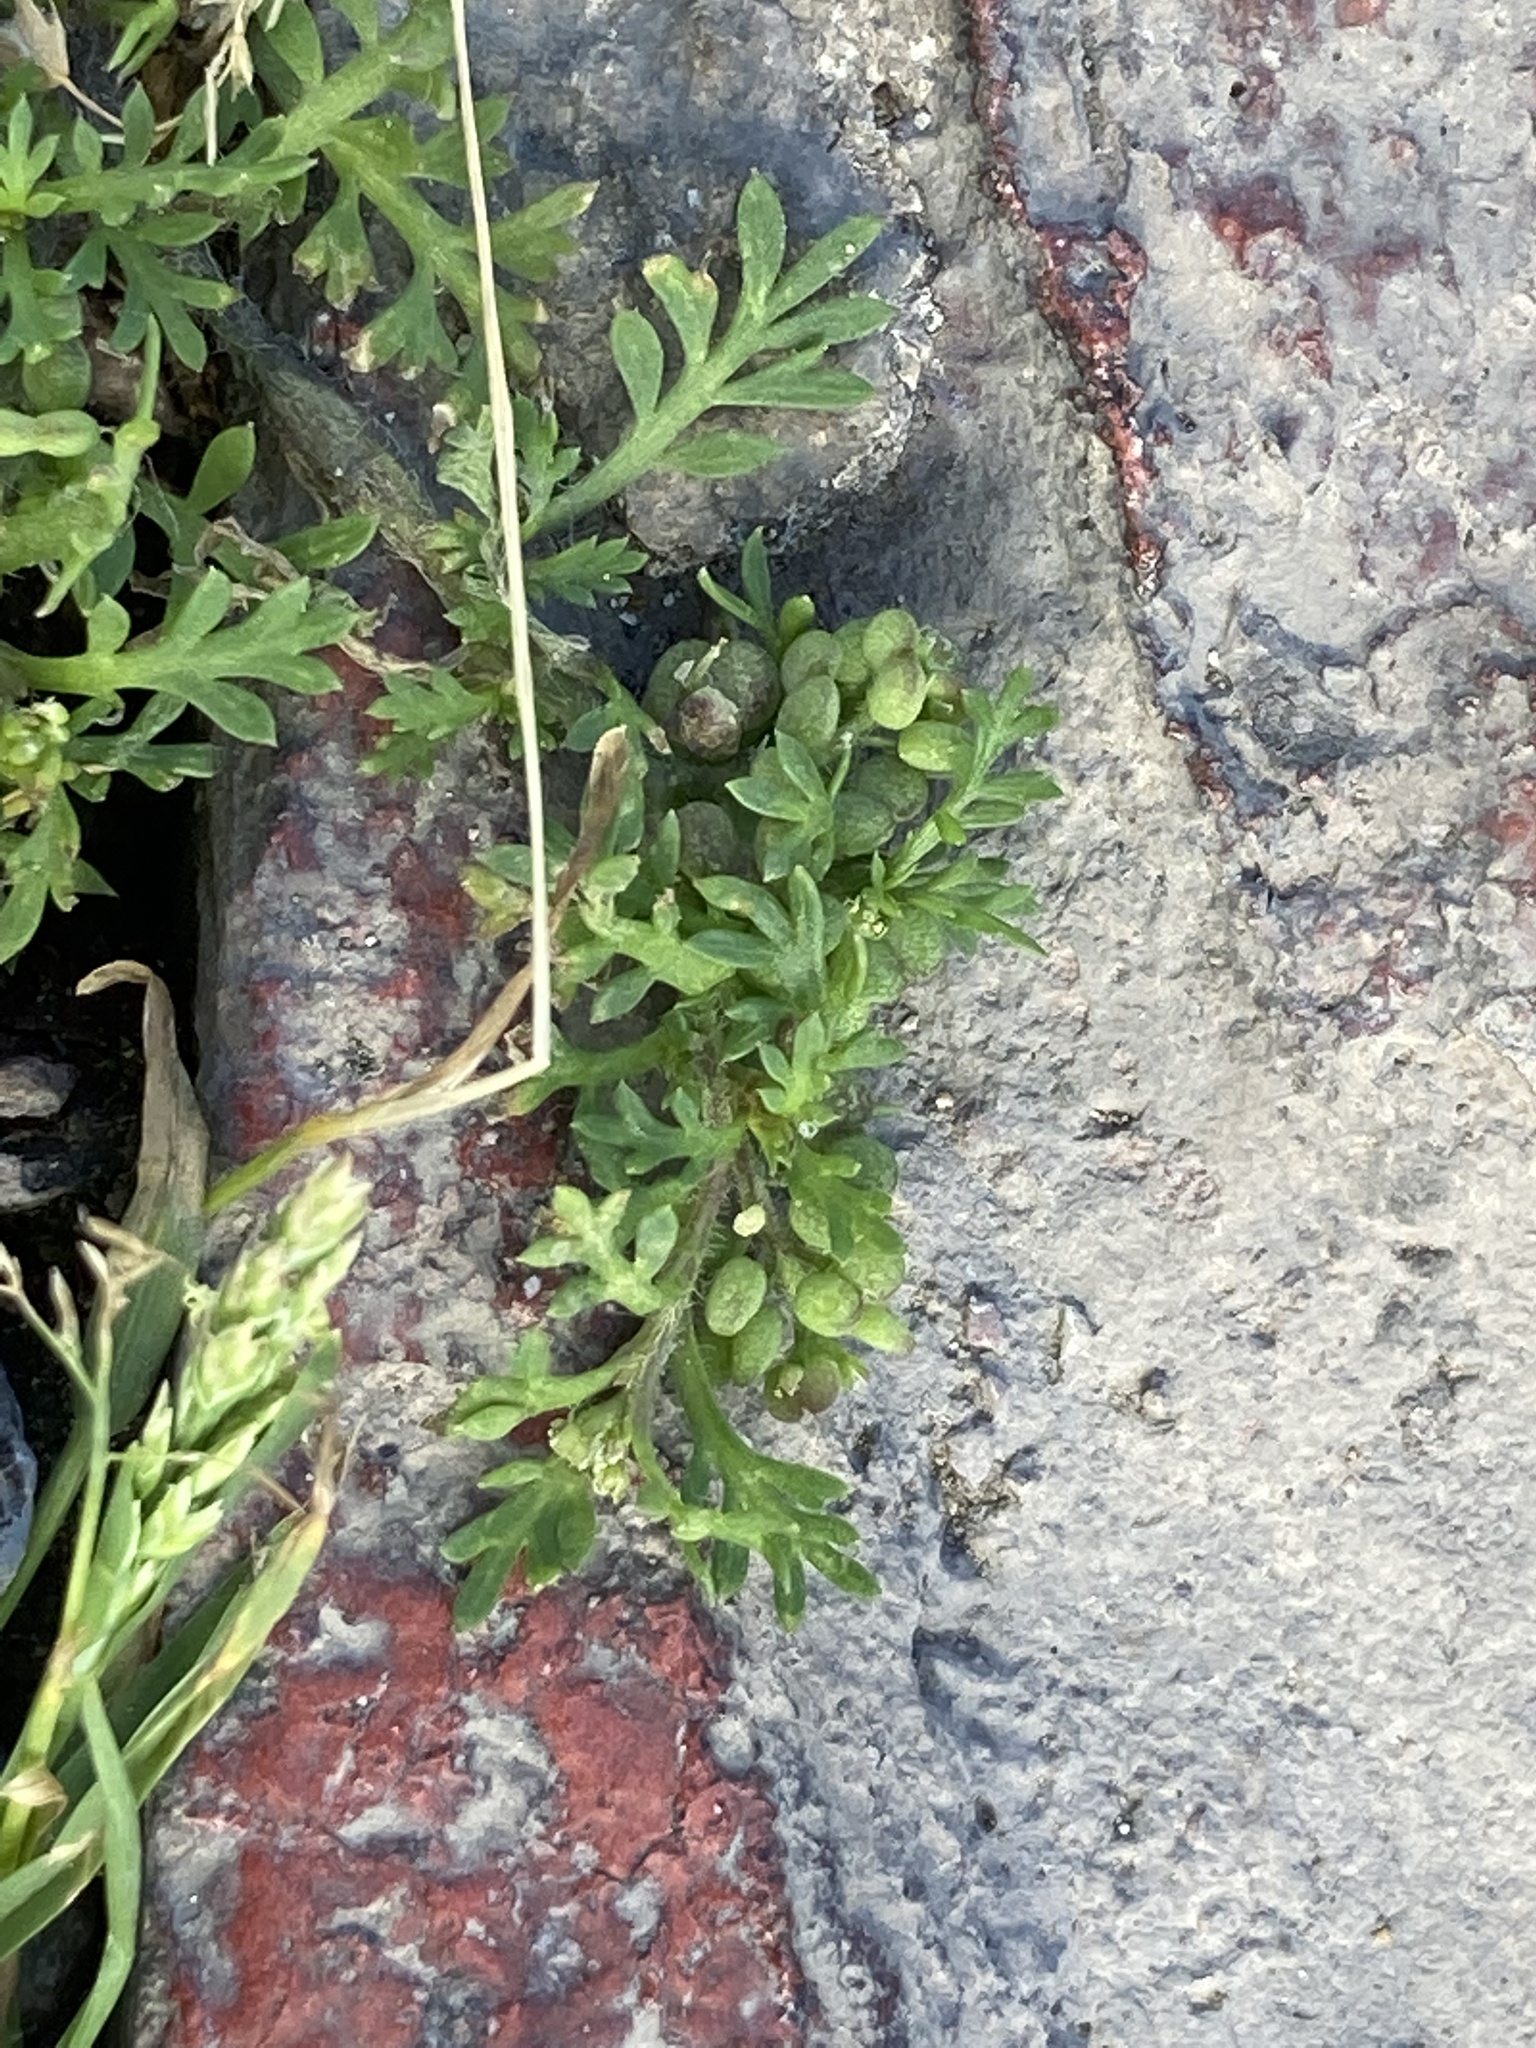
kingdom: Plantae
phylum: Tracheophyta
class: Magnoliopsida
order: Brassicales
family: Brassicaceae
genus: Lepidium
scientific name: Lepidium didymum
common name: Lesser swinecress
